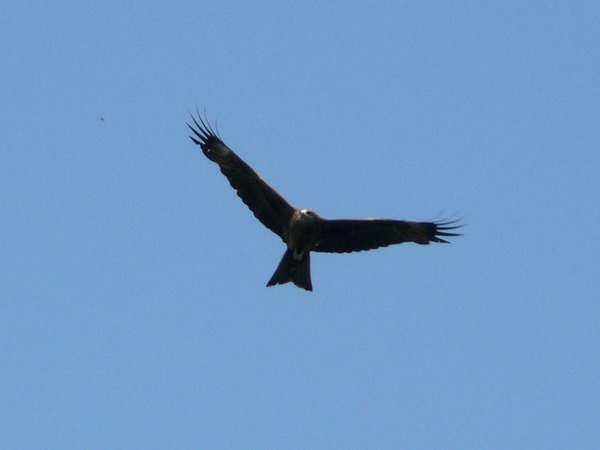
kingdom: Animalia
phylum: Chordata
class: Aves
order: Accipitriformes
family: Accipitridae
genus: Milvus
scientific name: Milvus migrans
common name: Black kite
